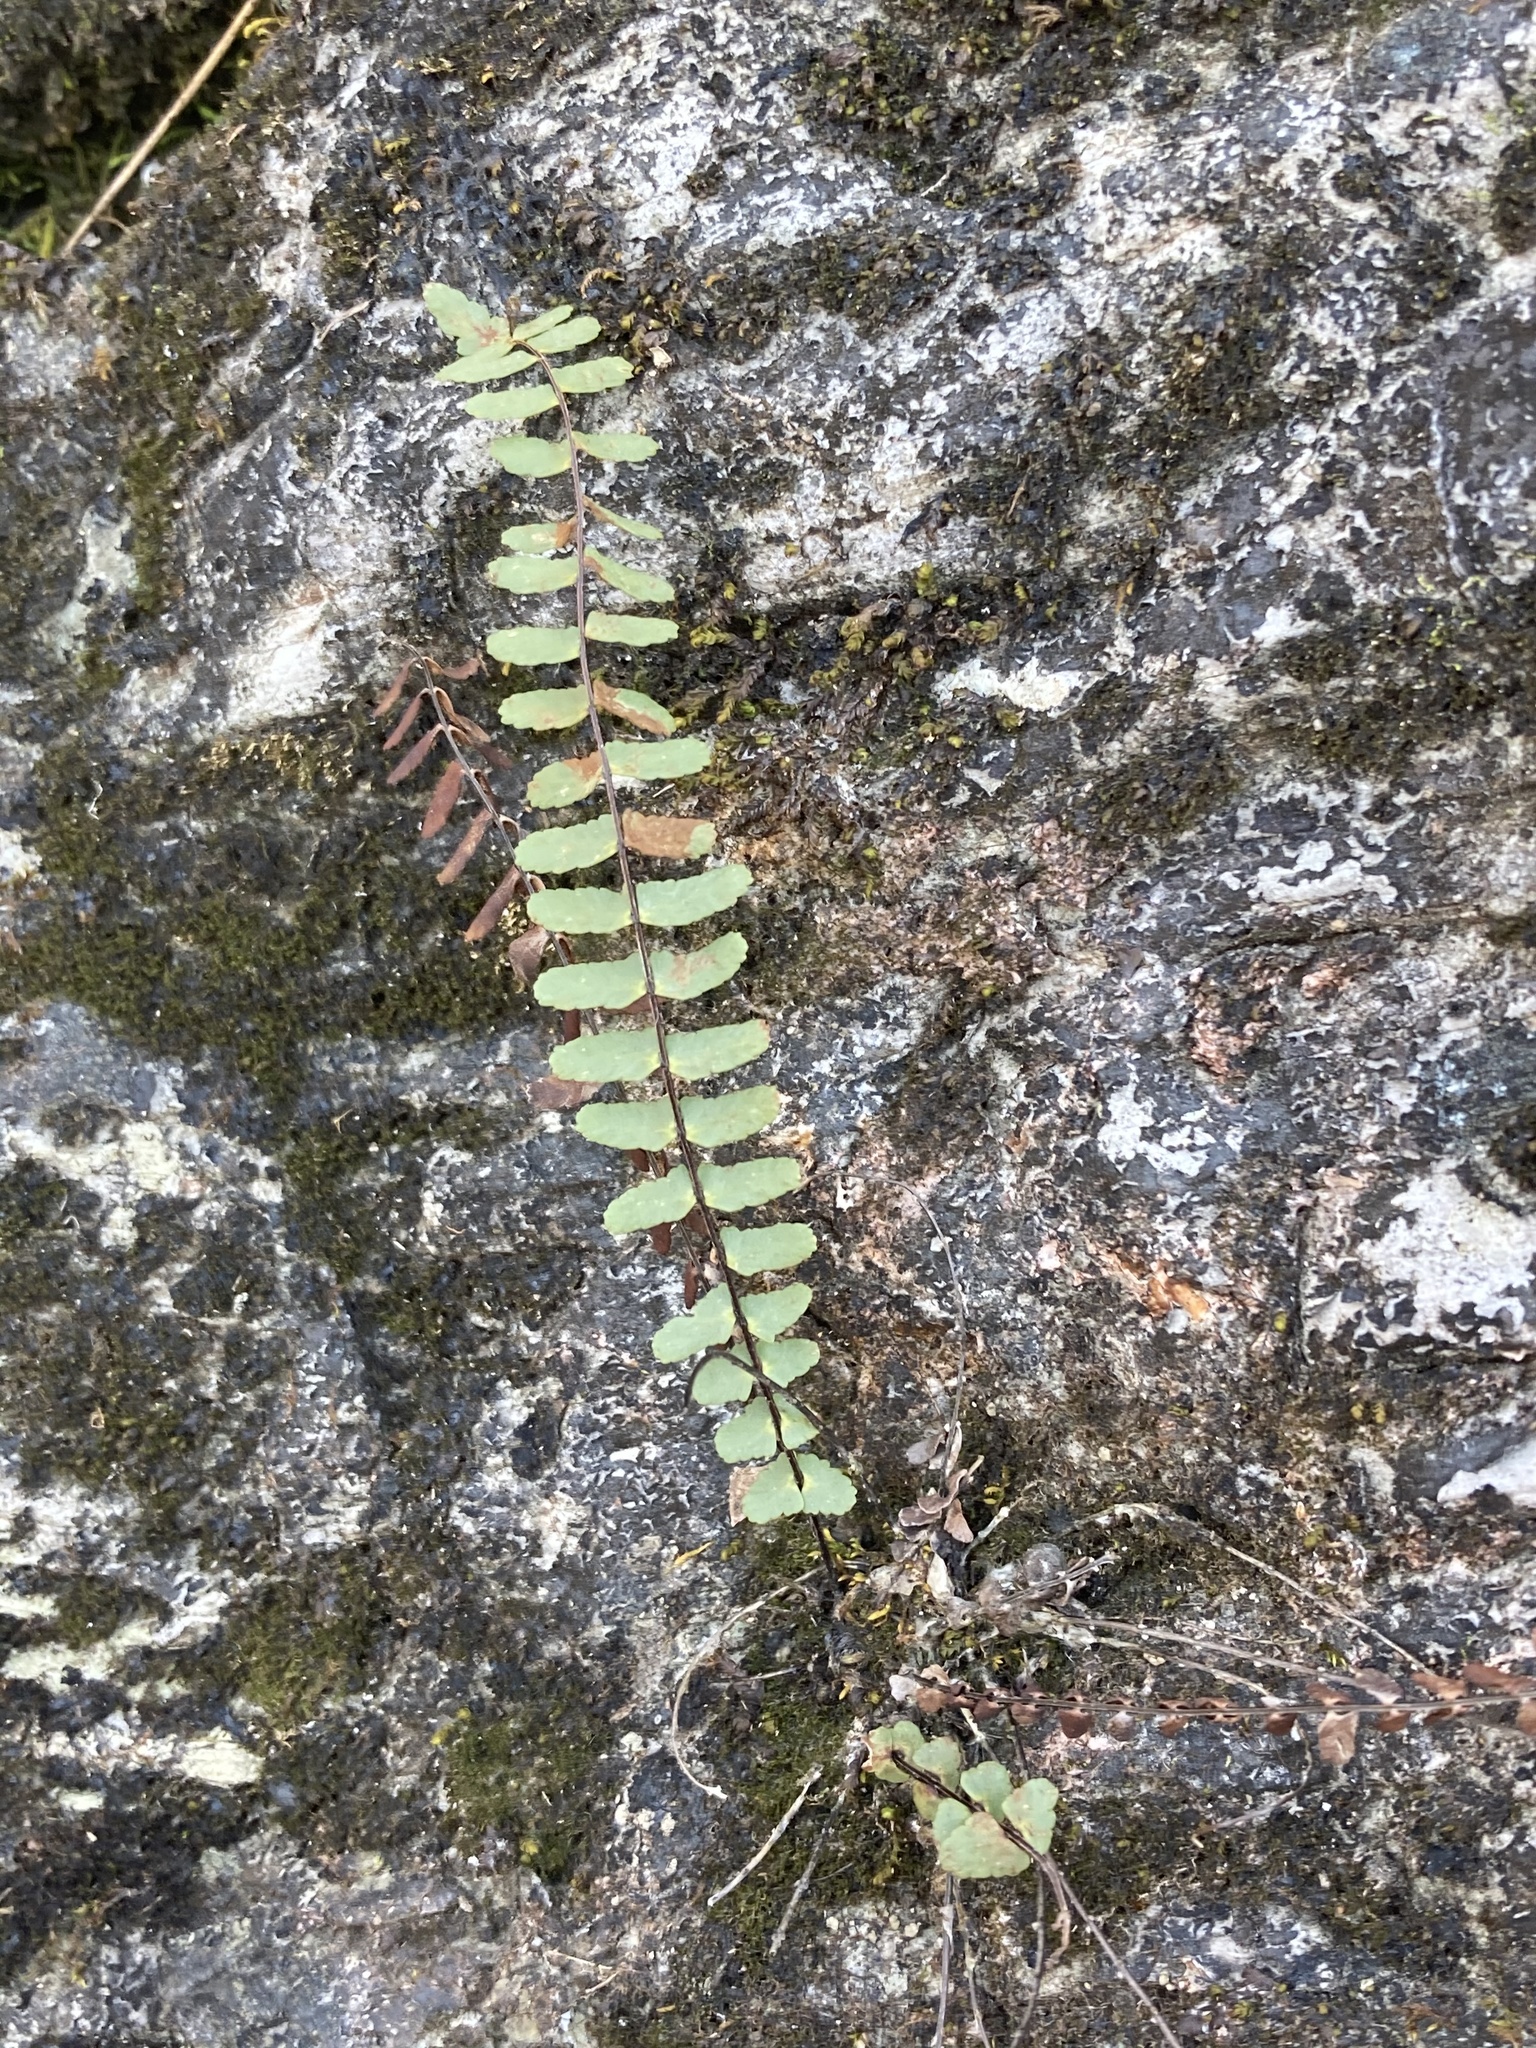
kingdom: Plantae
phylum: Tracheophyta
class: Polypodiopsida
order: Polypodiales
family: Aspleniaceae
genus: Asplenium
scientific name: Asplenium resiliens
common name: Blackstem spleenwort
